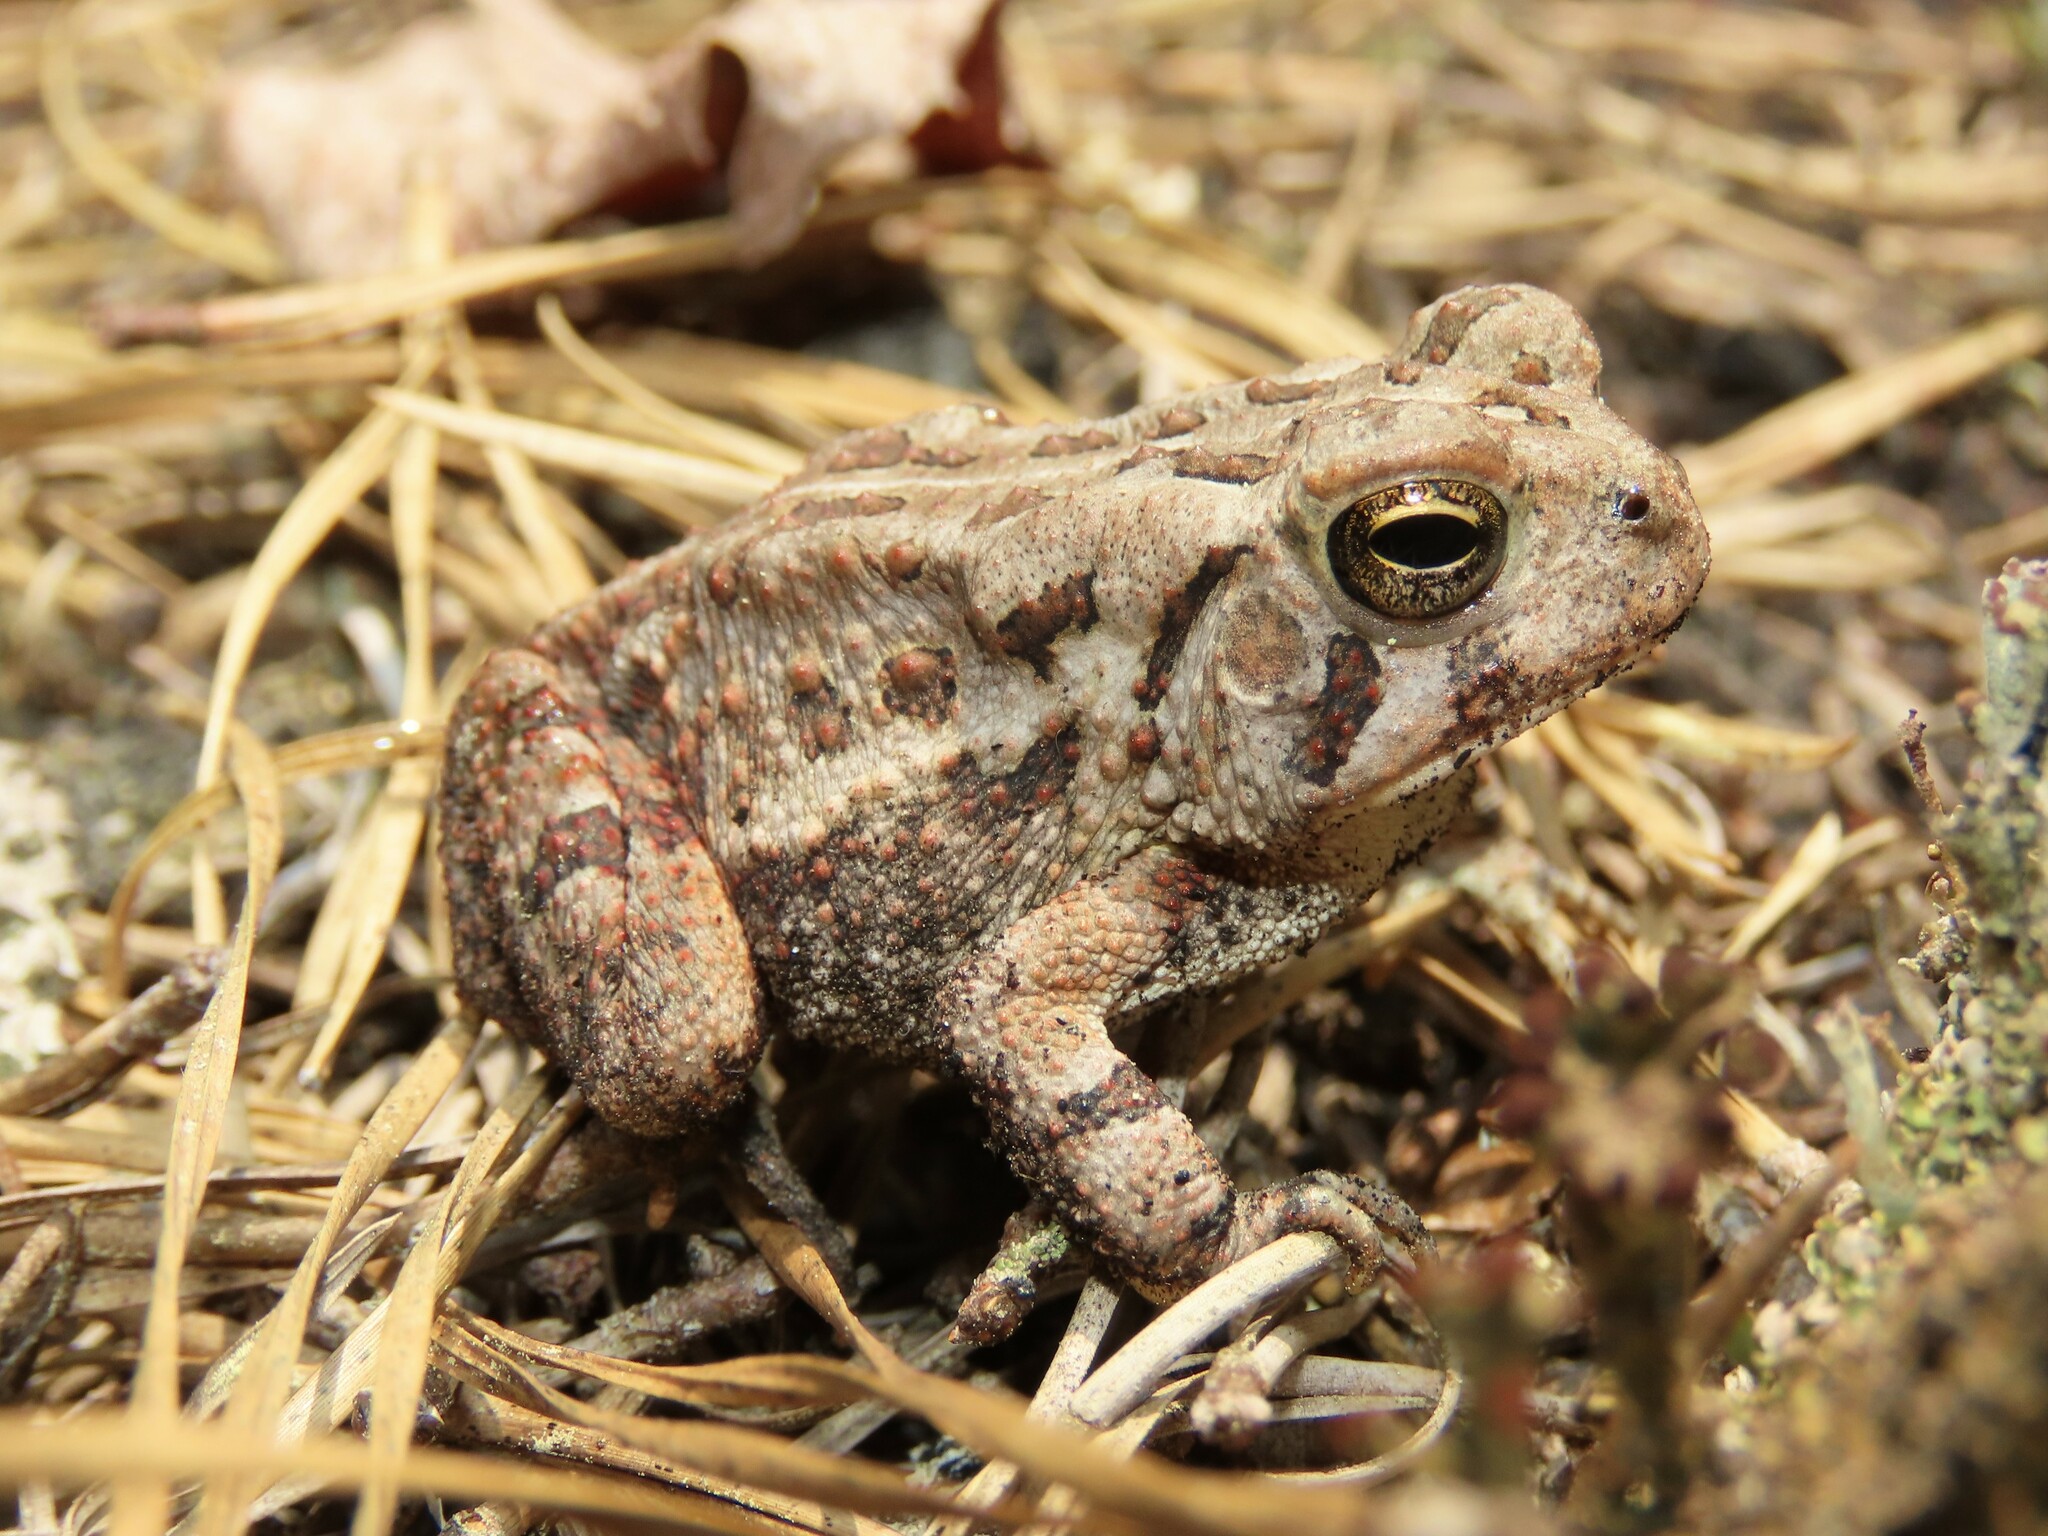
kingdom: Animalia
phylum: Chordata
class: Amphibia
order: Anura
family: Bufonidae
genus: Anaxyrus
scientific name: Anaxyrus fowleri
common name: Fowler's toad
